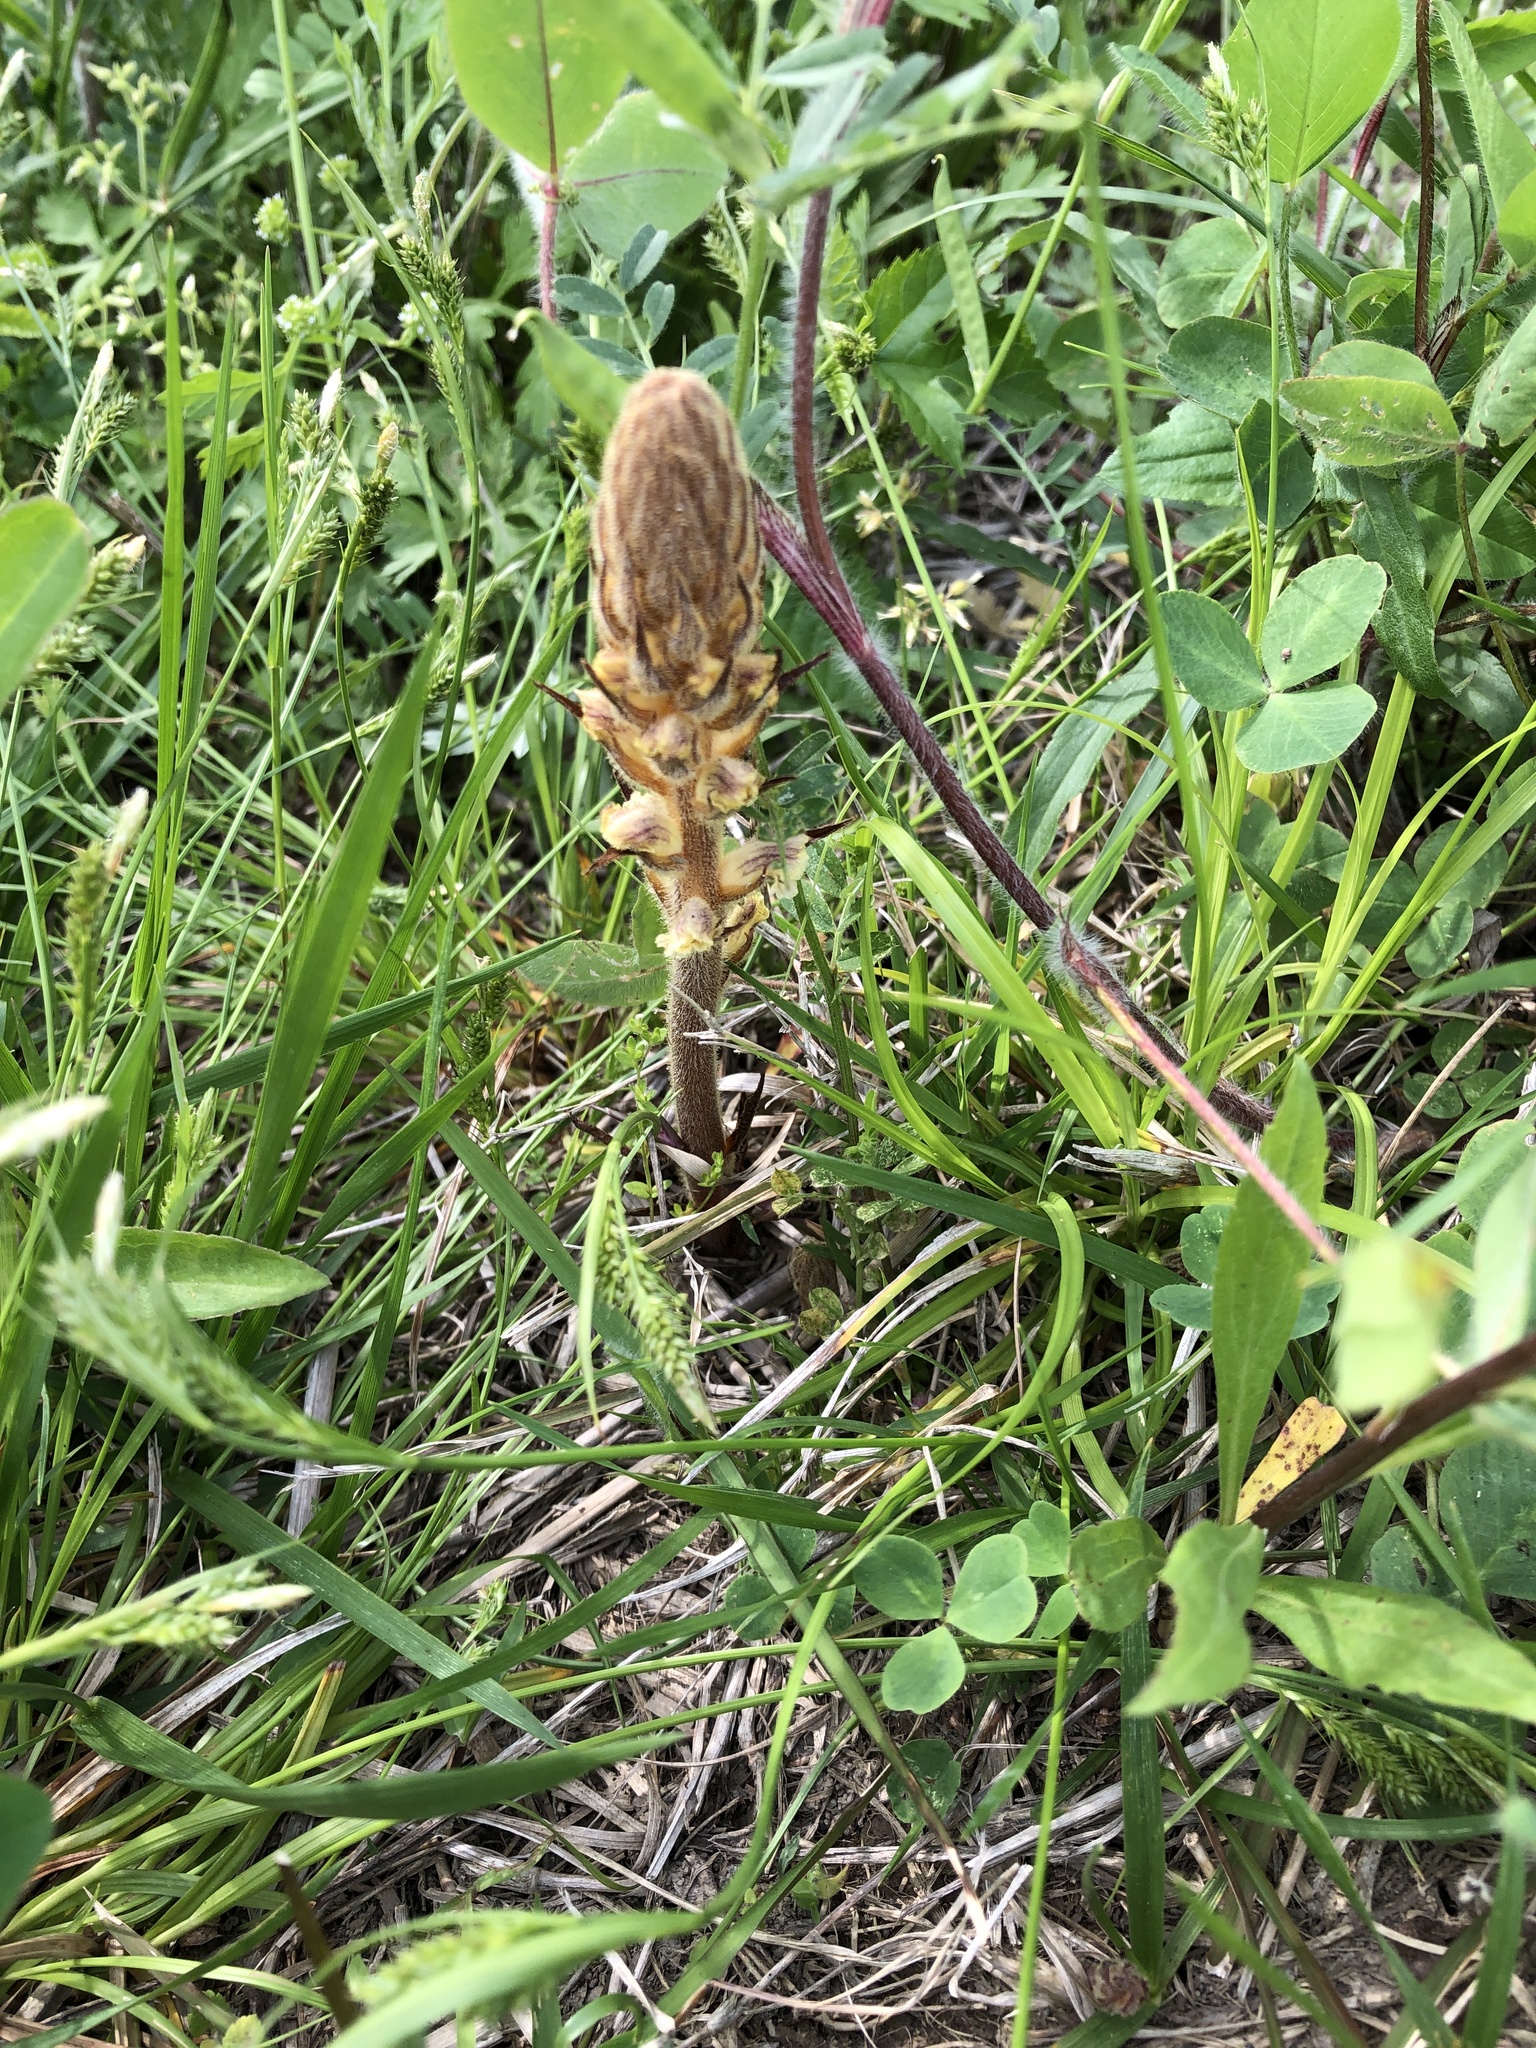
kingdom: Plantae
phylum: Tracheophyta
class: Magnoliopsida
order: Lamiales
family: Orobanchaceae
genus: Orobanche
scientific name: Orobanche minor
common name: Common broomrape
